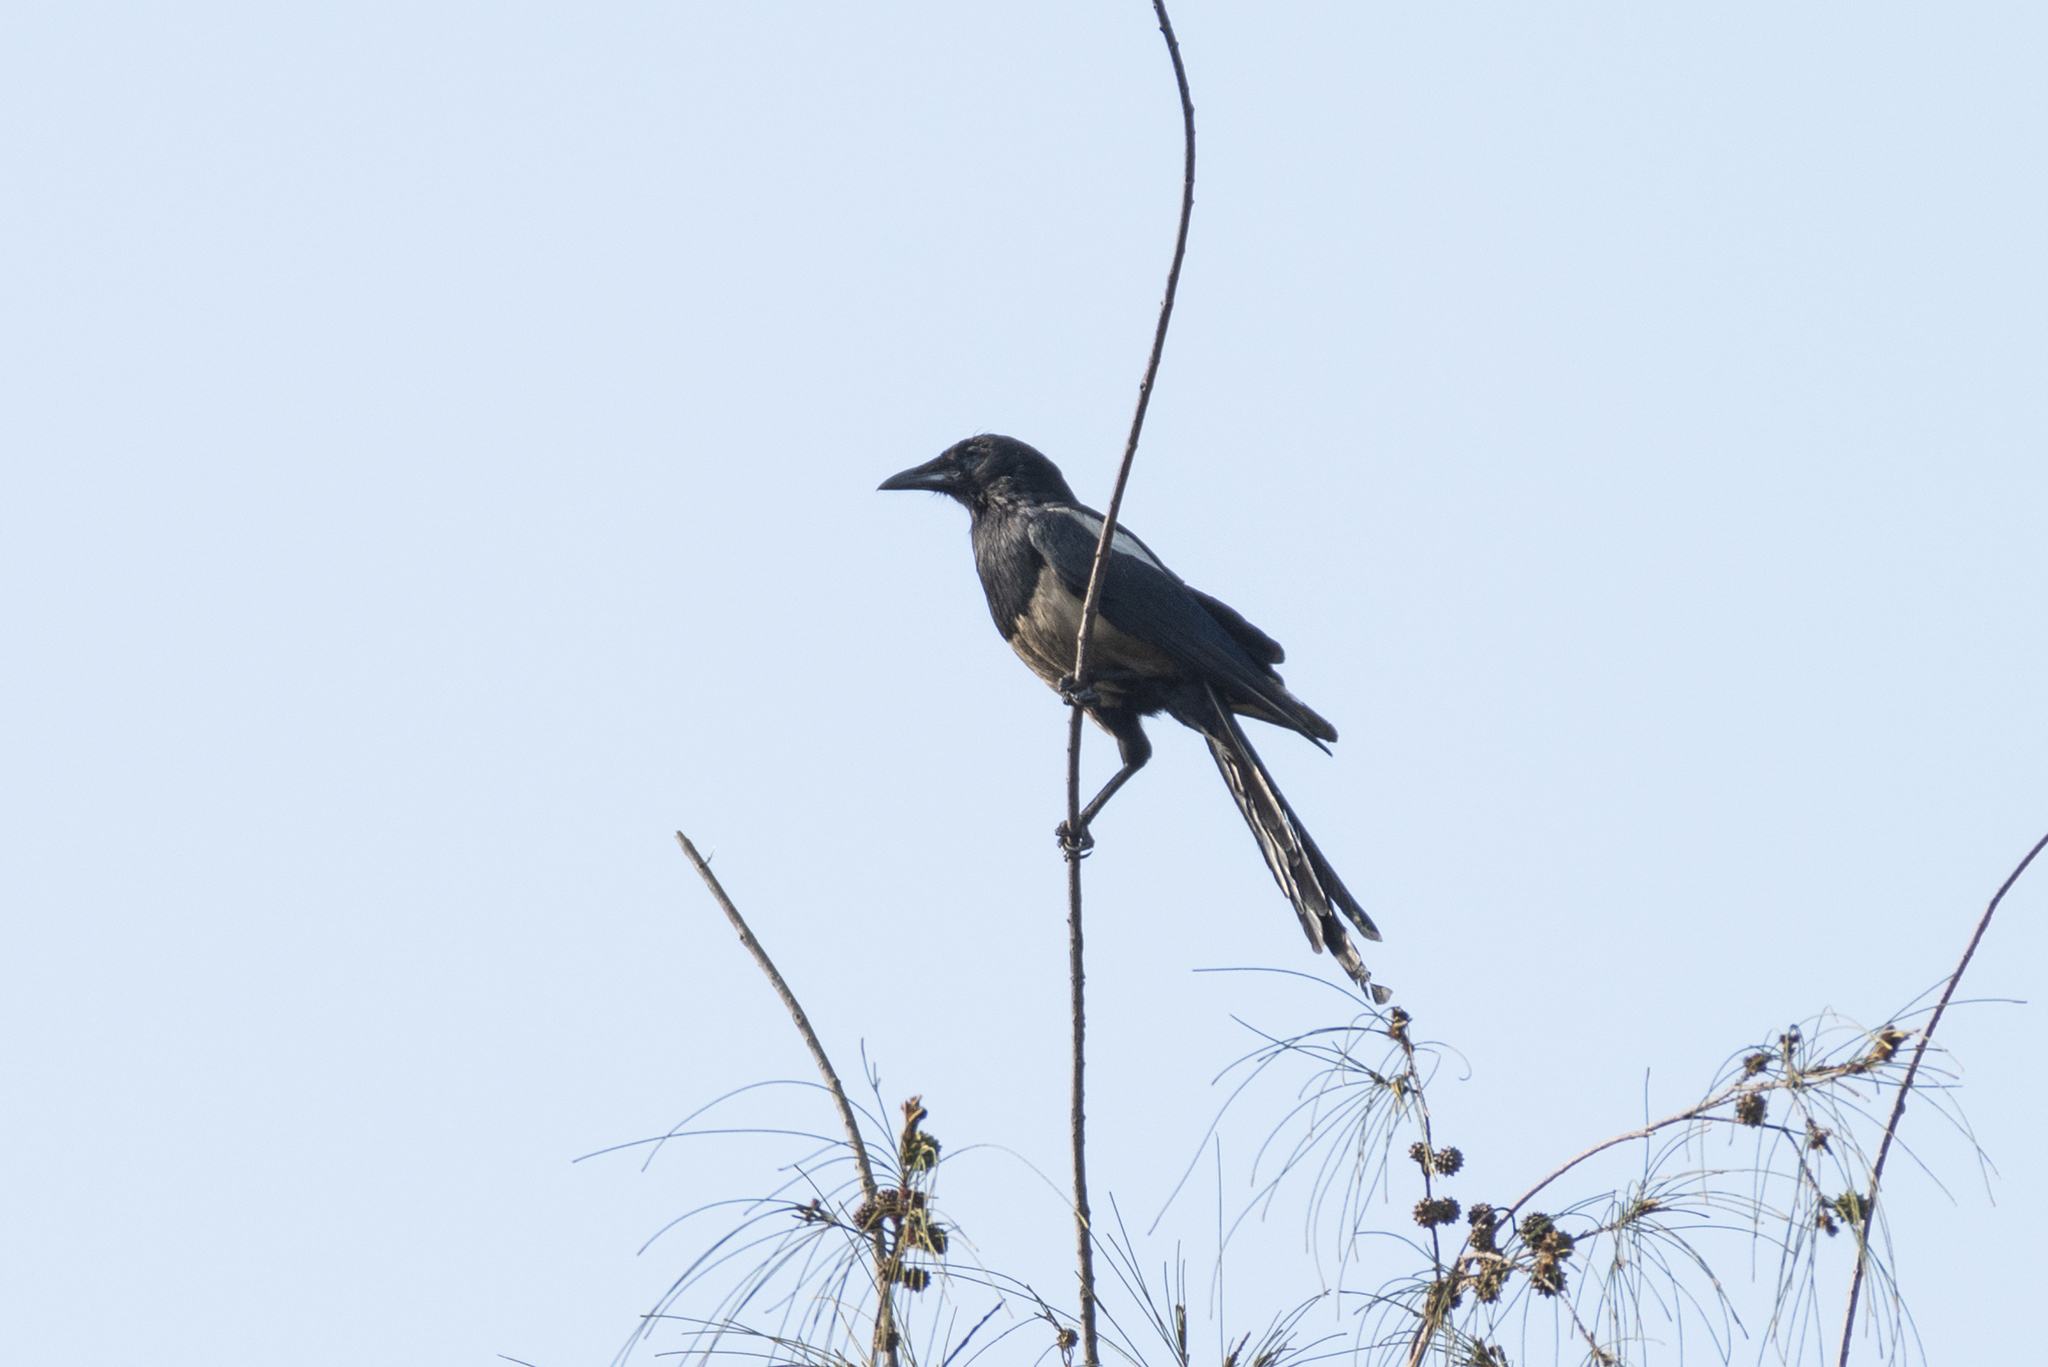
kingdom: Animalia
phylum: Chordata
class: Aves
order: Passeriformes
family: Corvidae
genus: Pica
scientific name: Pica serica
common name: Oriental magpie
